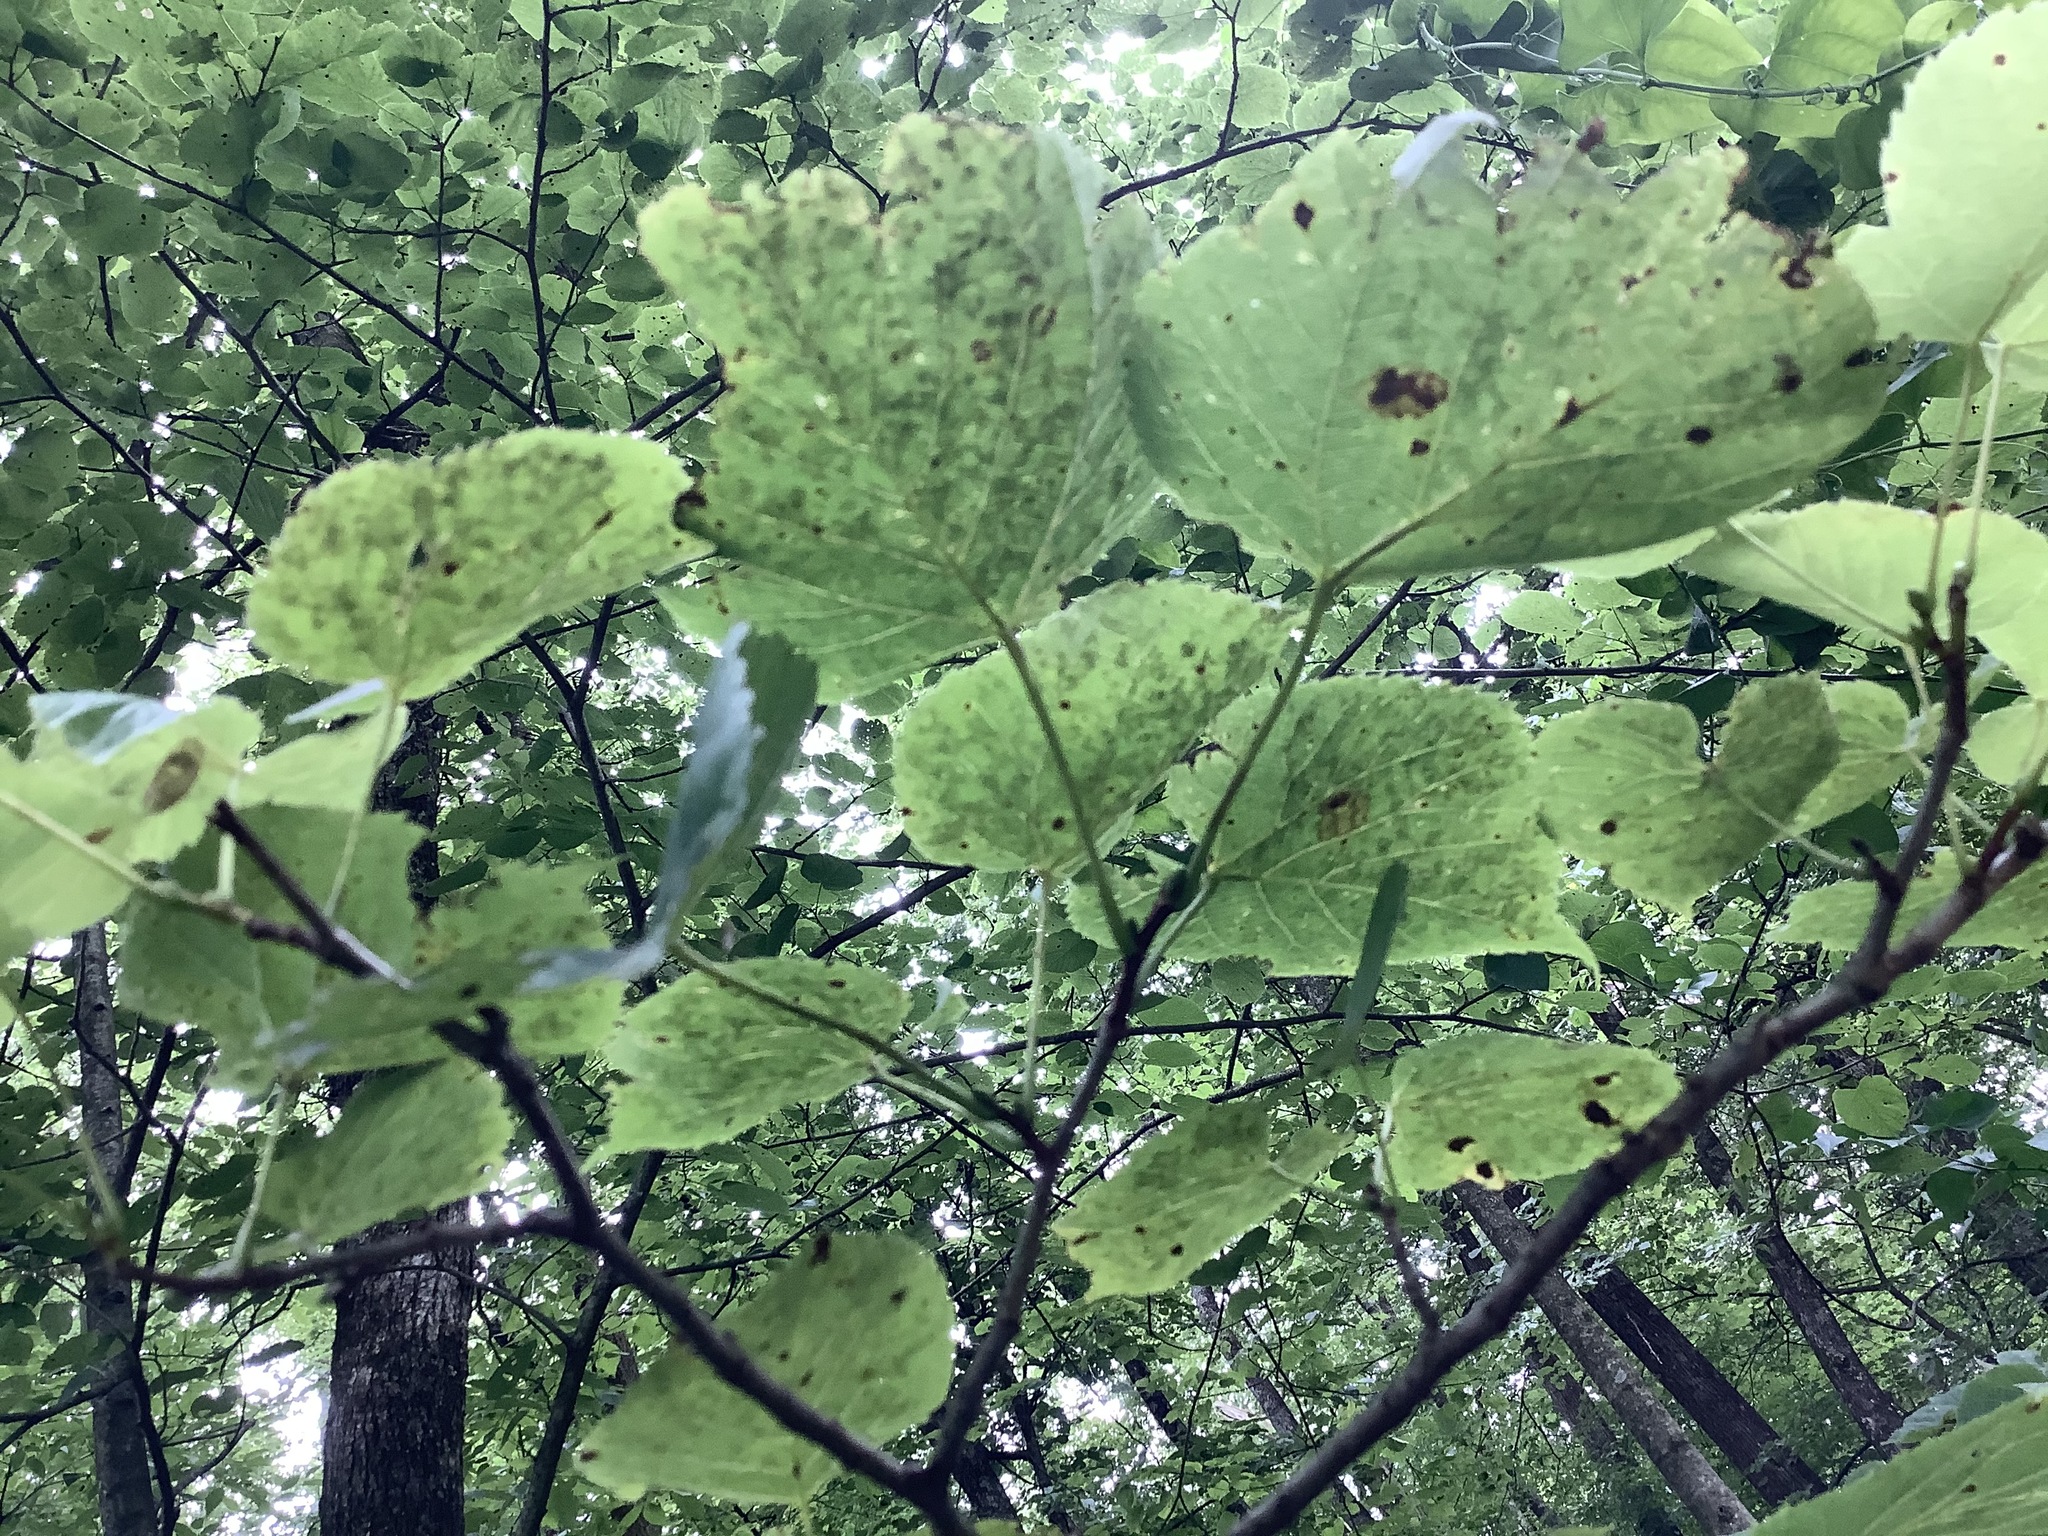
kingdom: Plantae
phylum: Tracheophyta
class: Magnoliopsida
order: Malvales
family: Malvaceae
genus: Tilia
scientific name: Tilia americana
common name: Basswood
